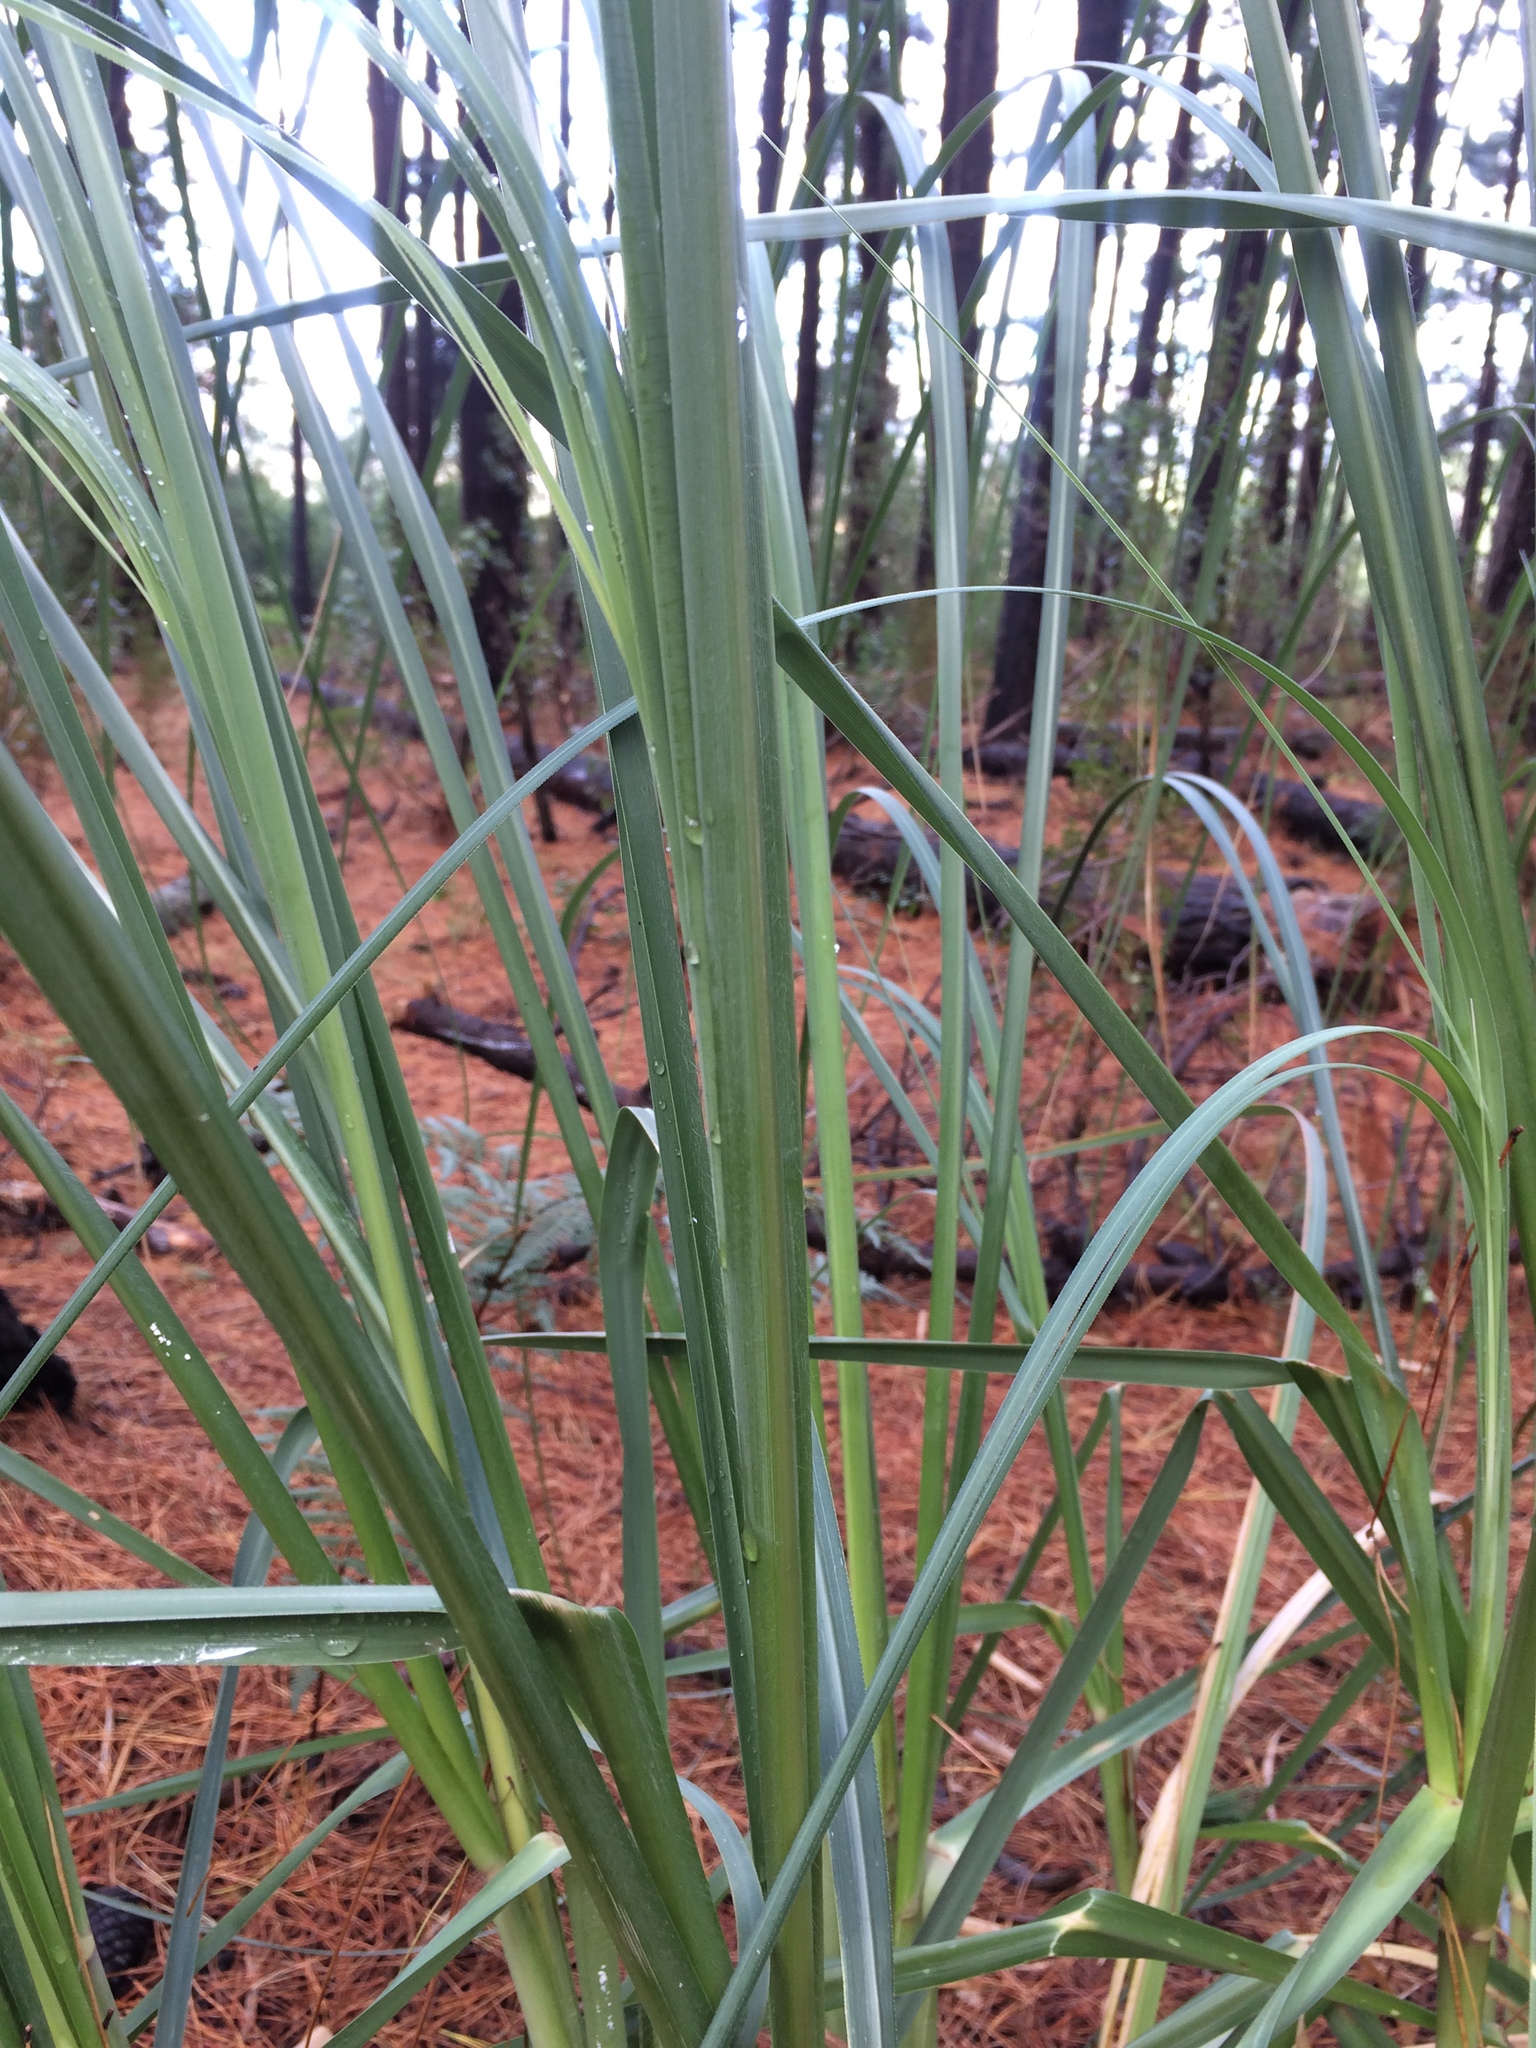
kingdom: Plantae
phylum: Tracheophyta
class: Liliopsida
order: Poales
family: Poaceae
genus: Cortaderia
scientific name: Cortaderia selloana
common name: Uruguayan pampas grass
